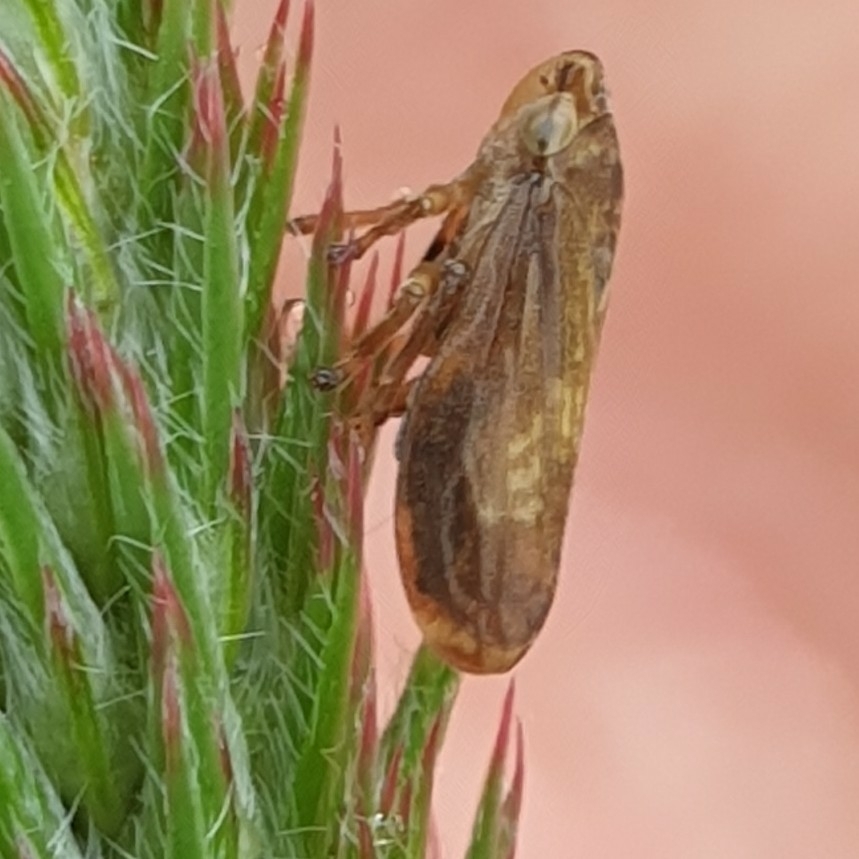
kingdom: Animalia
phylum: Arthropoda
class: Insecta
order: Hemiptera
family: Aphrophoridae
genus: Philaenus
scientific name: Philaenus spumarius
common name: Meadow spittlebug
